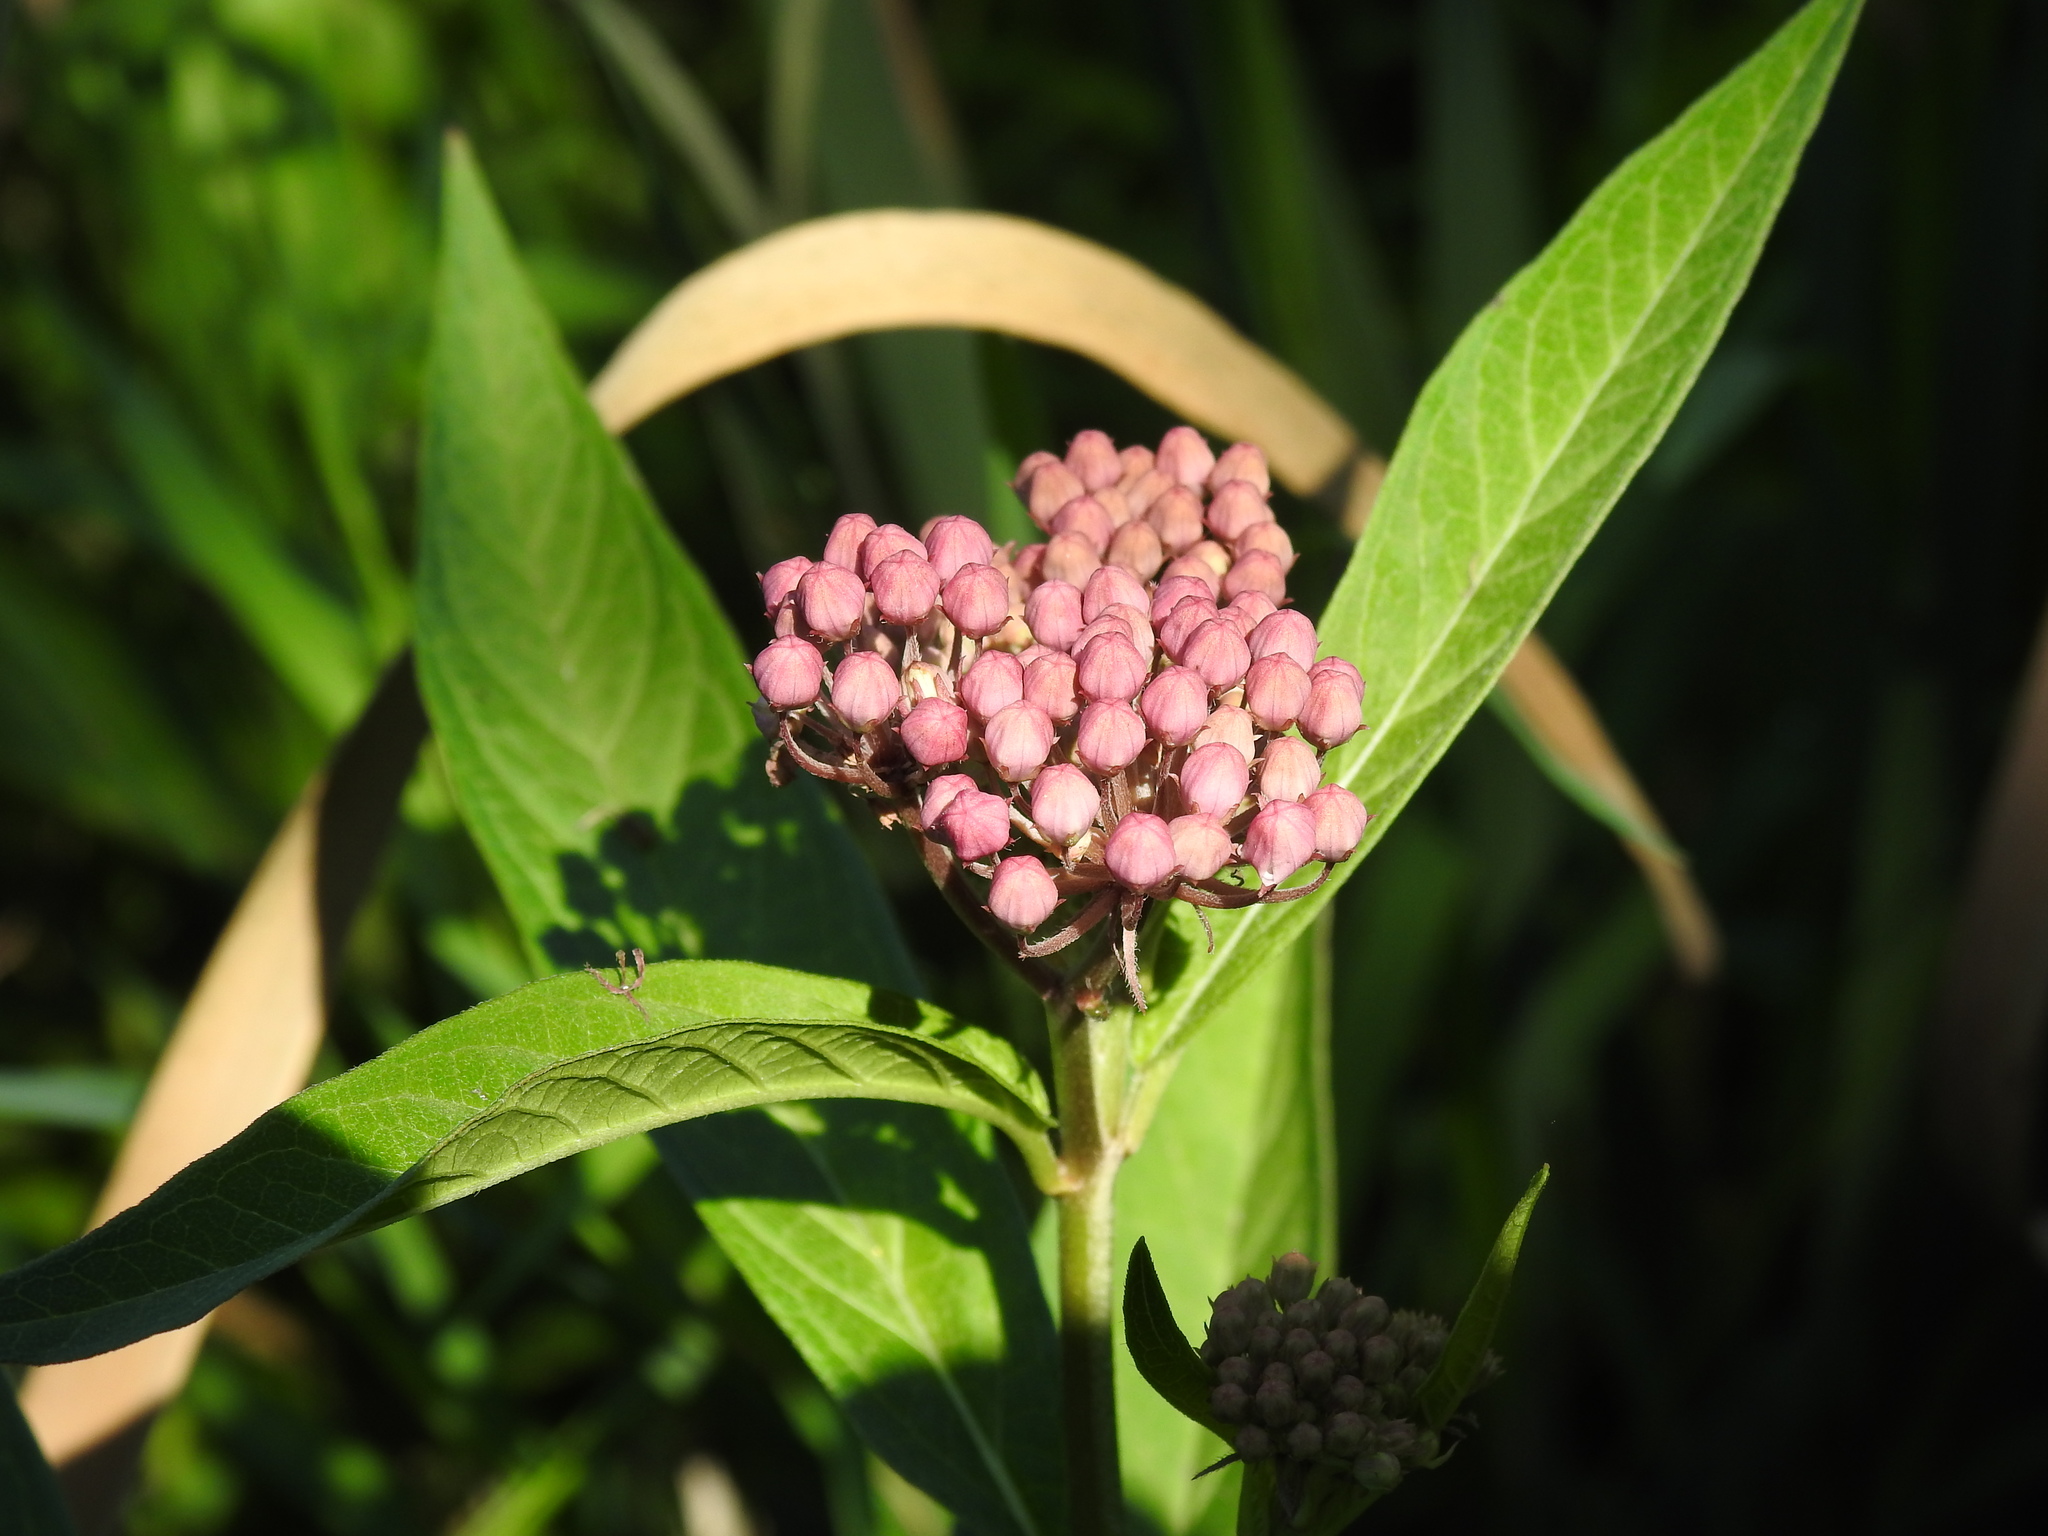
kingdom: Plantae
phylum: Tracheophyta
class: Magnoliopsida
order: Gentianales
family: Apocynaceae
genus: Asclepias
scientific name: Asclepias incarnata
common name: Swamp milkweed
